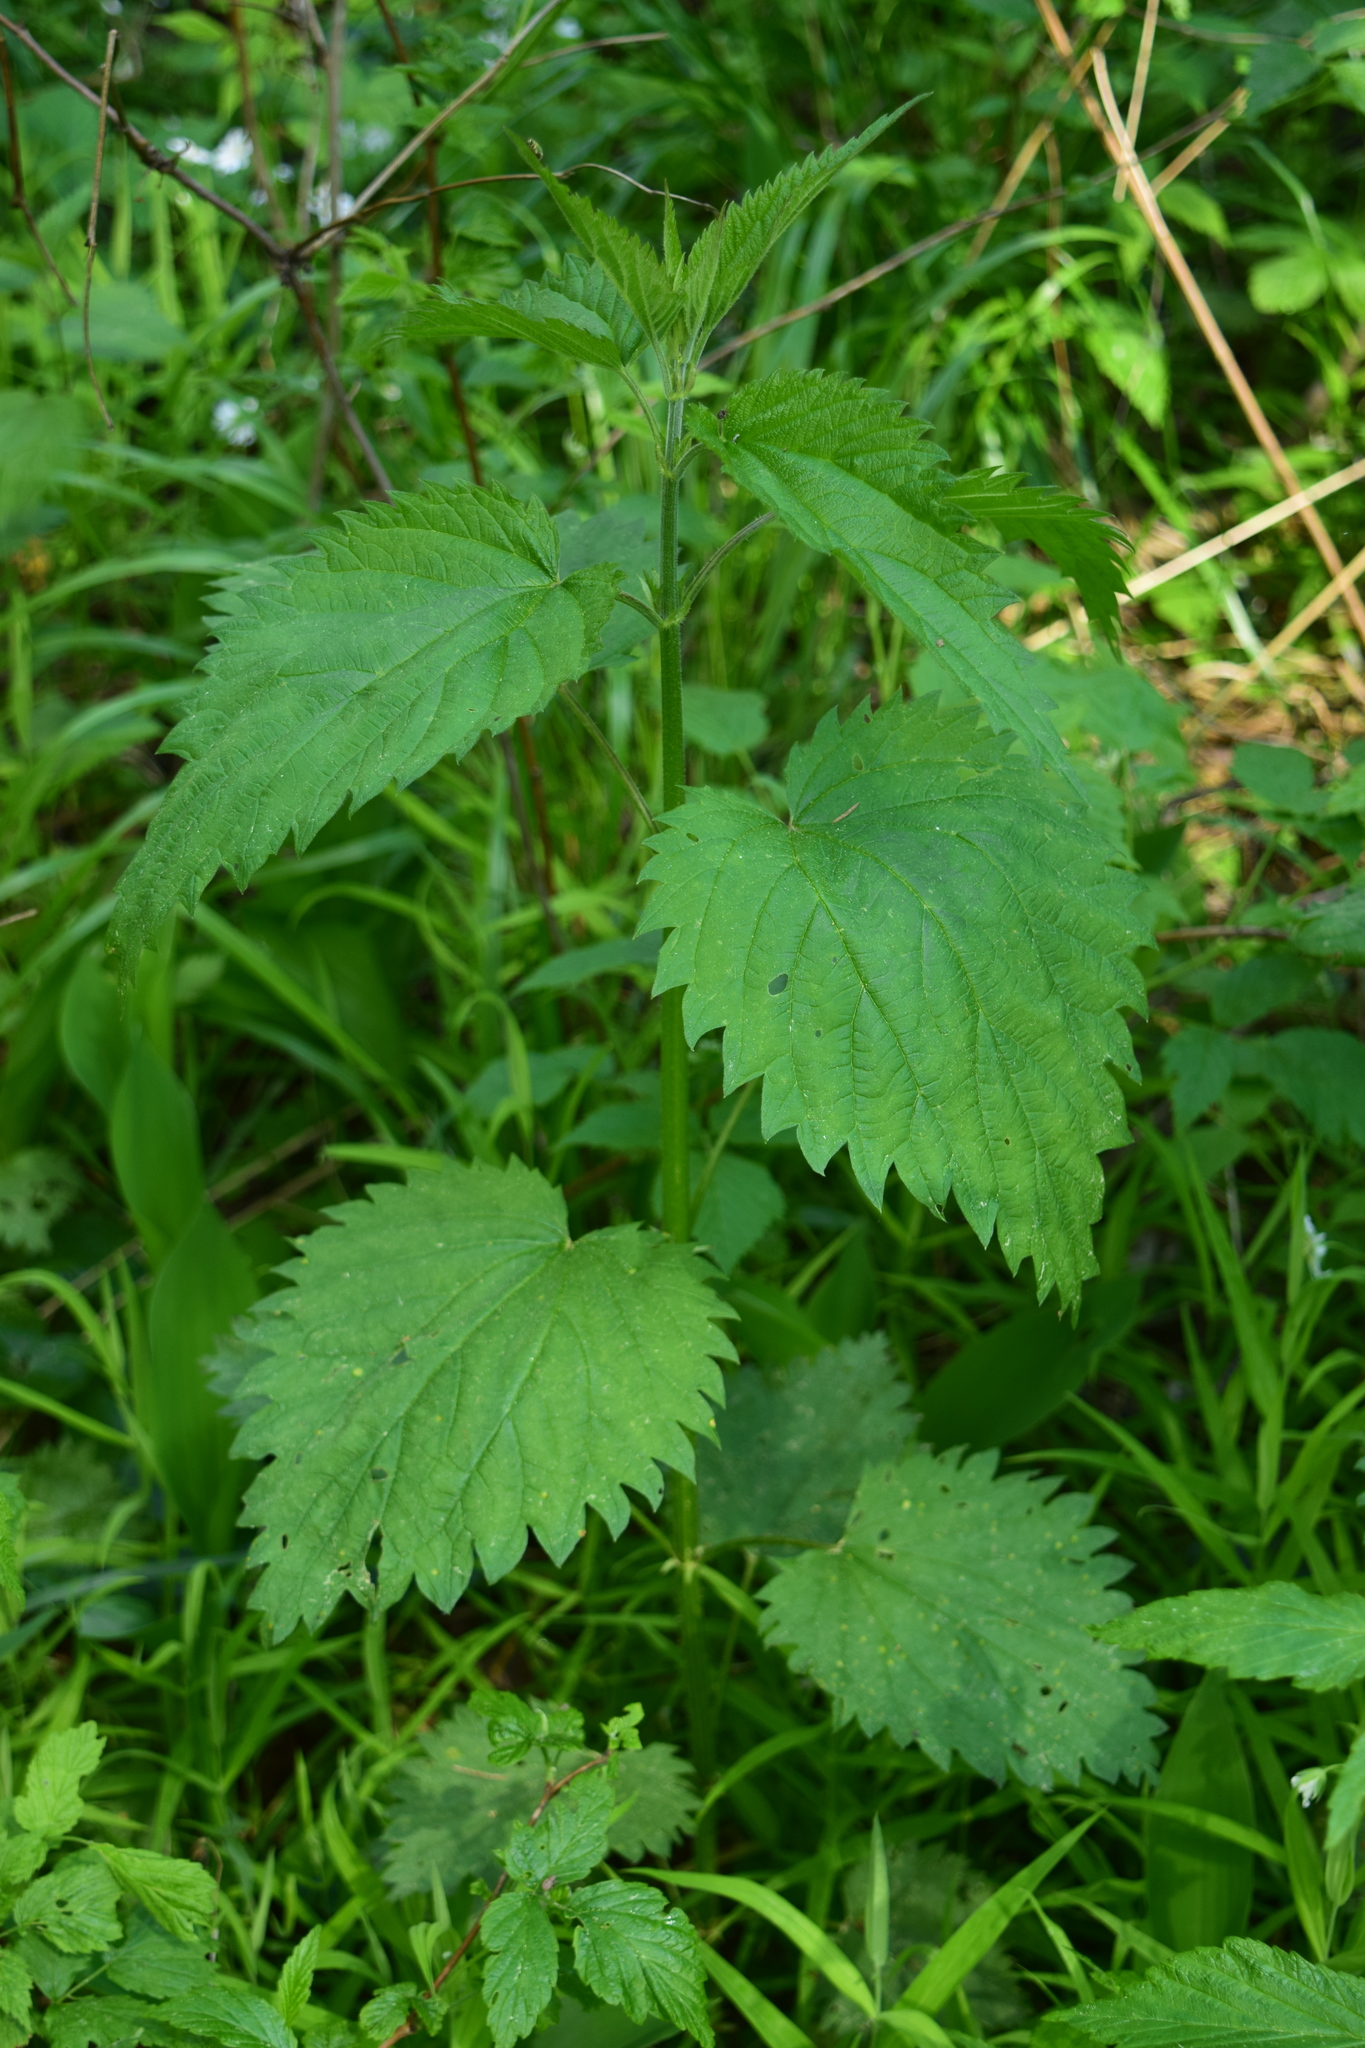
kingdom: Plantae
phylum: Tracheophyta
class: Magnoliopsida
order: Rosales
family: Urticaceae
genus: Urtica
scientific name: Urtica dioica
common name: Common nettle
